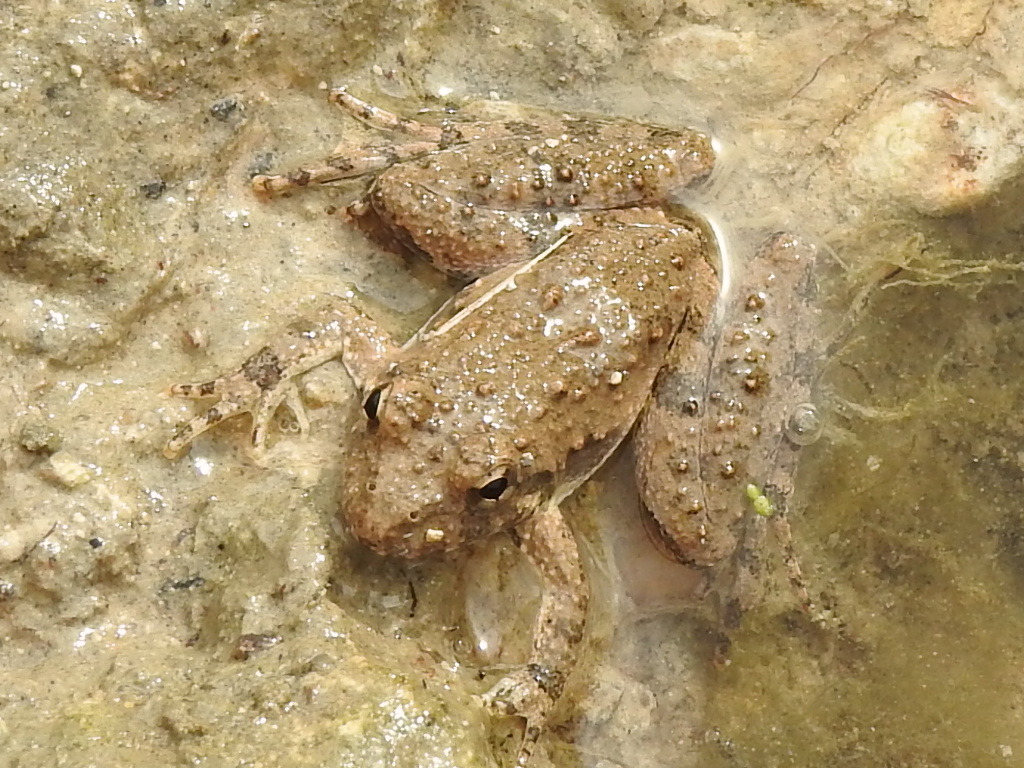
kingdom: Animalia
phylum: Chordata
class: Amphibia
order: Anura
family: Hylidae
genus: Acris
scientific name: Acris blanchardi
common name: Blanchard's cricket frog
